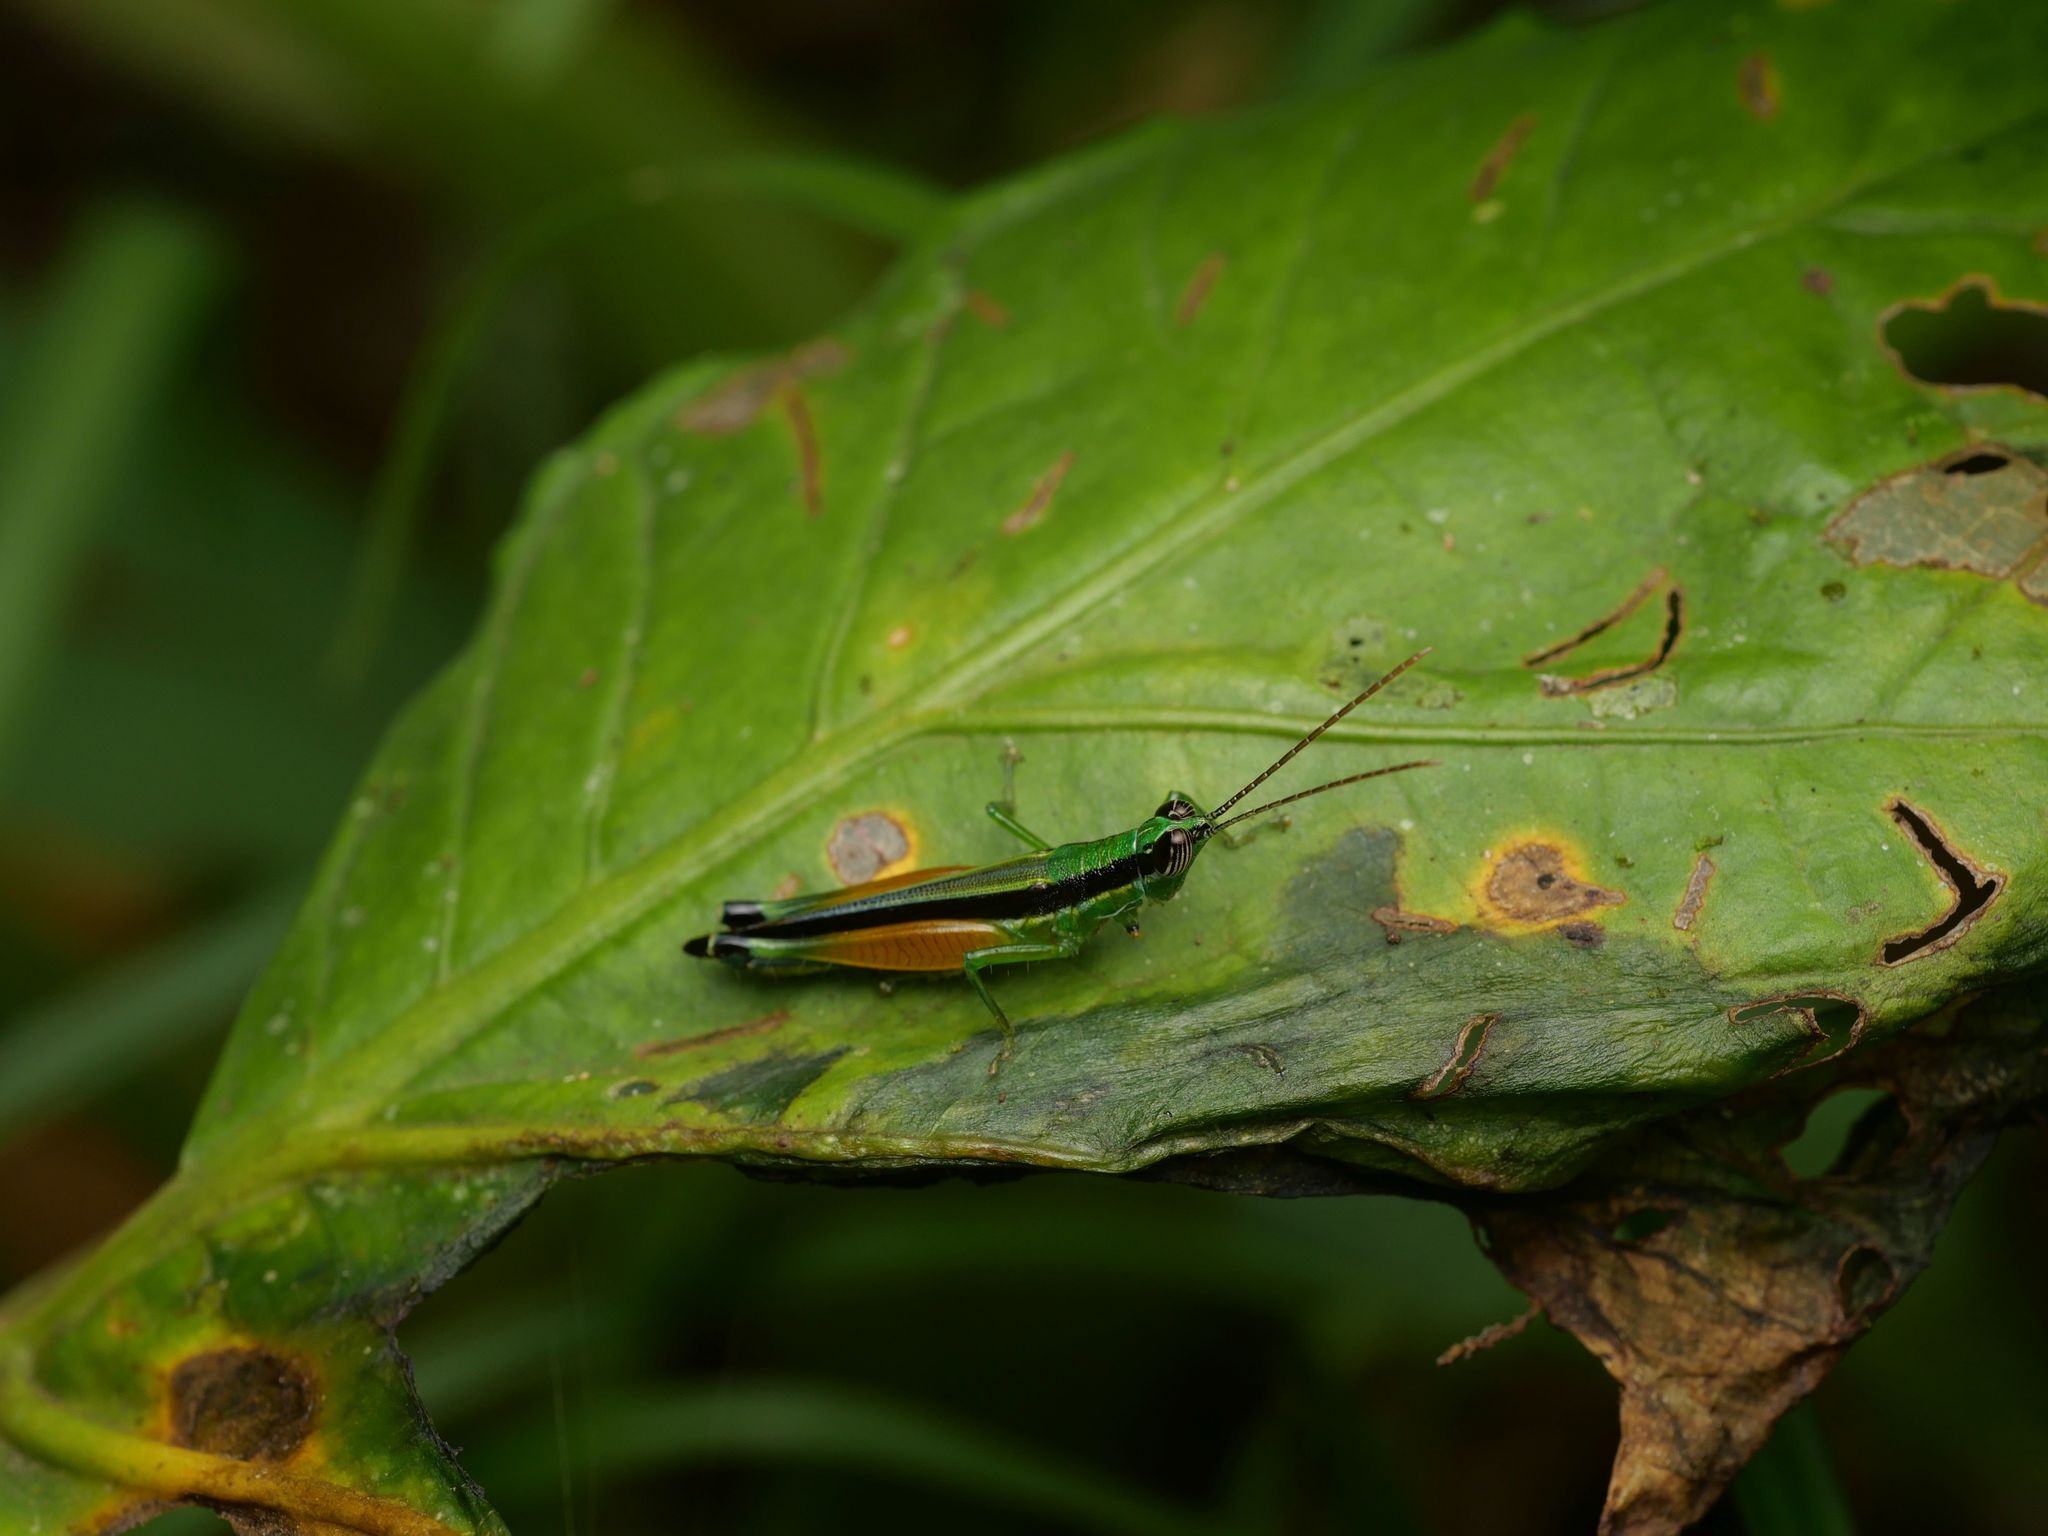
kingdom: Animalia
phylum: Arthropoda
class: Insecta
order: Orthoptera
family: Acrididae
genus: Stenopola
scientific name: Stenopola puncticeps
